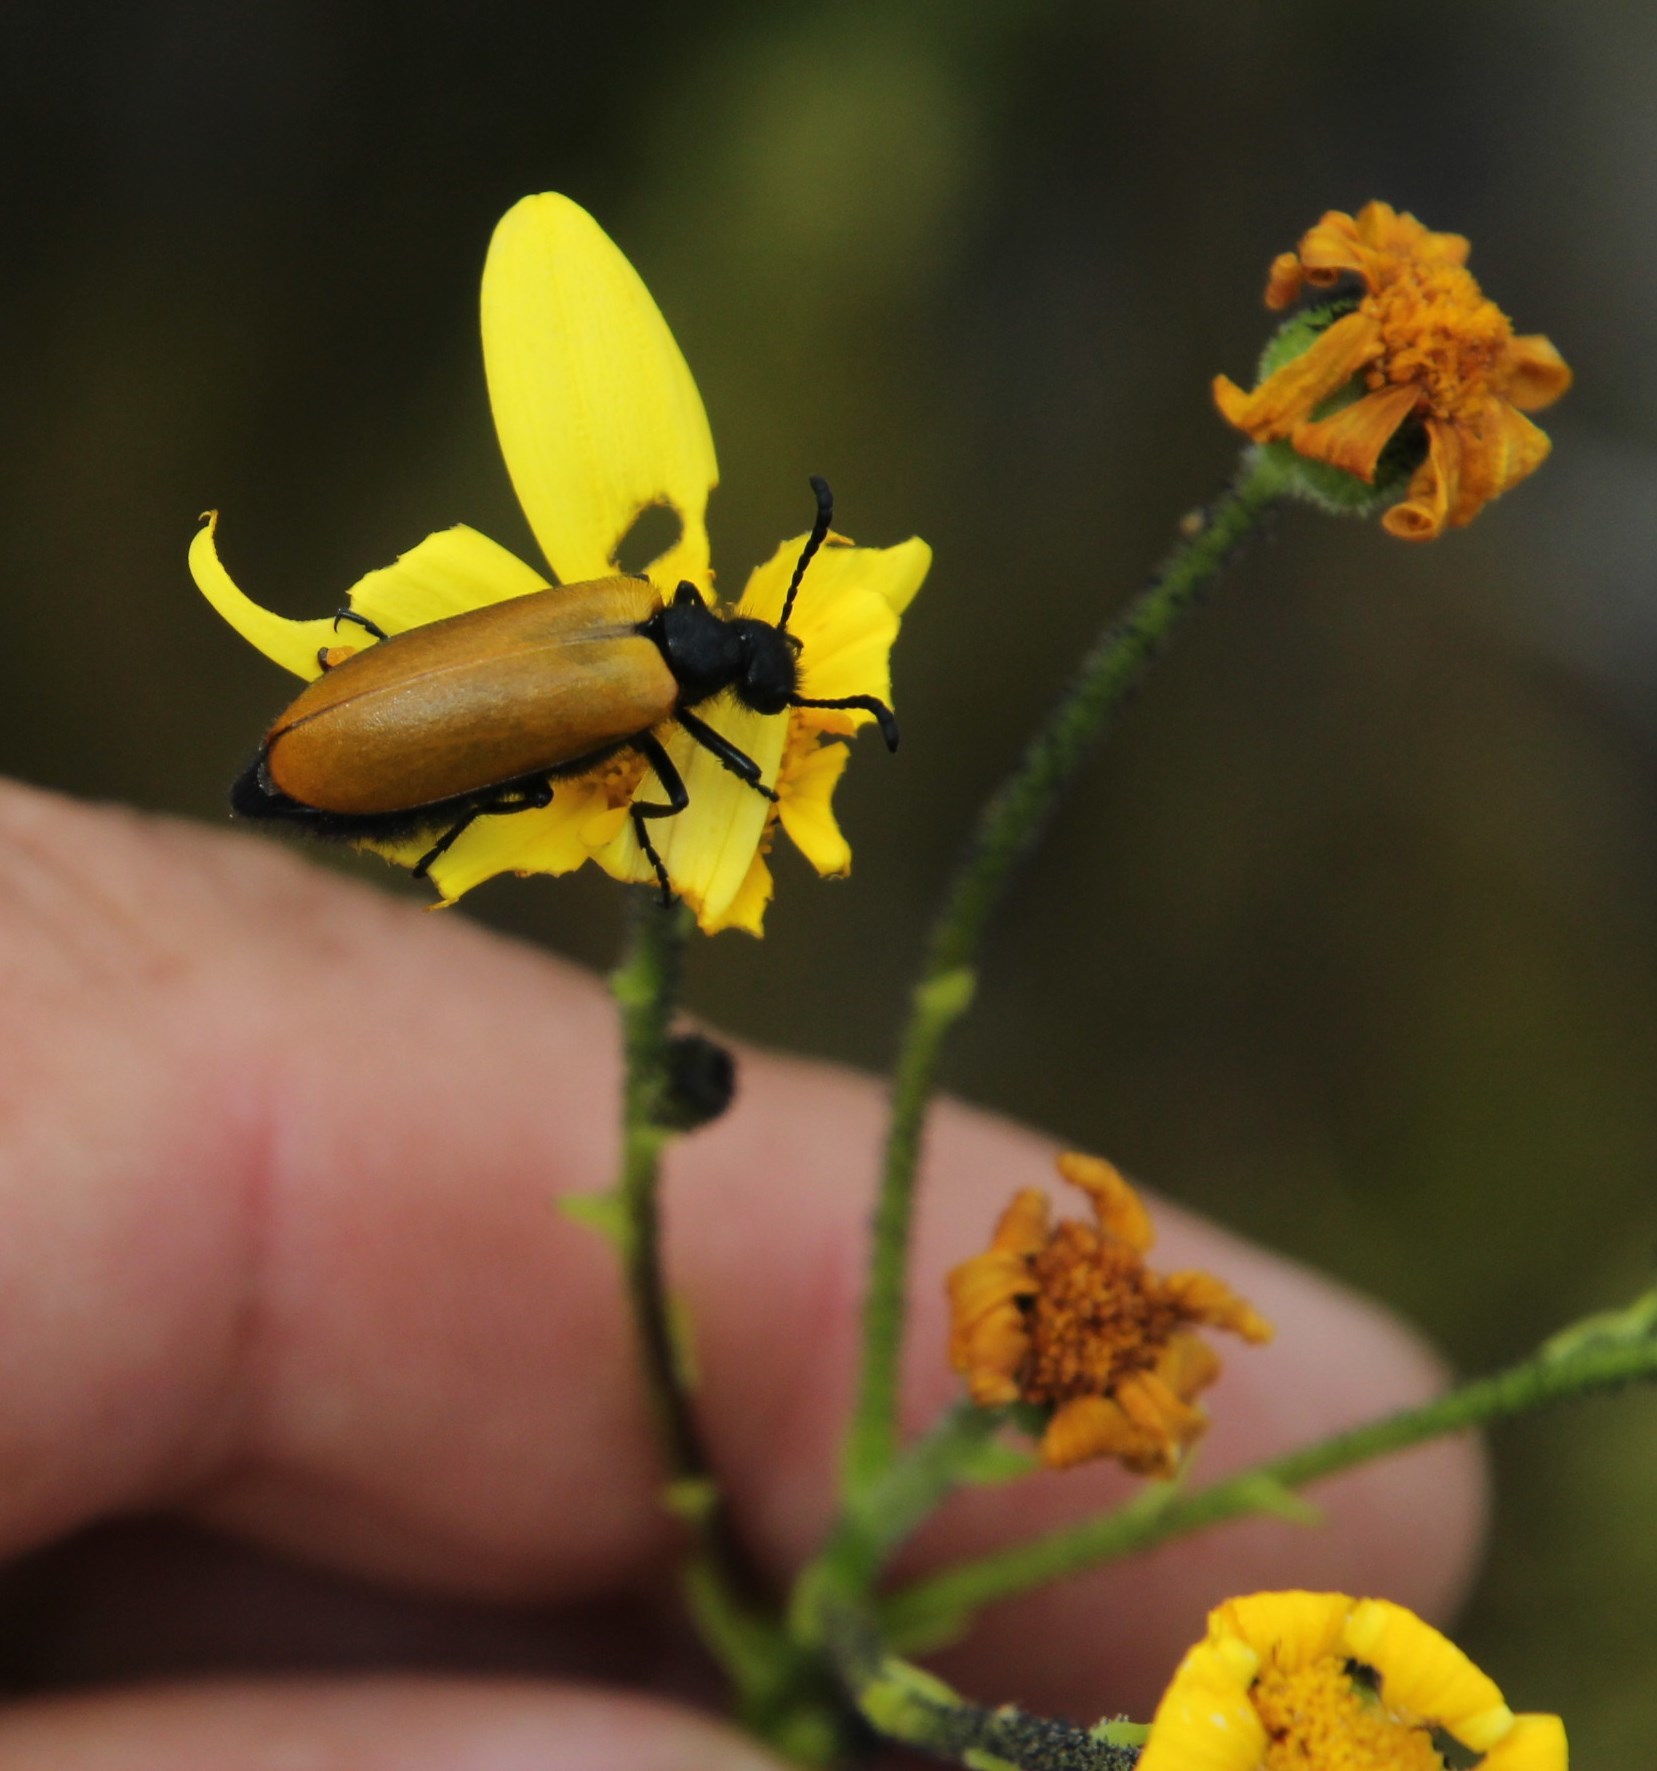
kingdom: Animalia
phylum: Arthropoda
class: Insecta
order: Coleoptera
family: Meloidae
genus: Prolytta
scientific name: Prolytta
